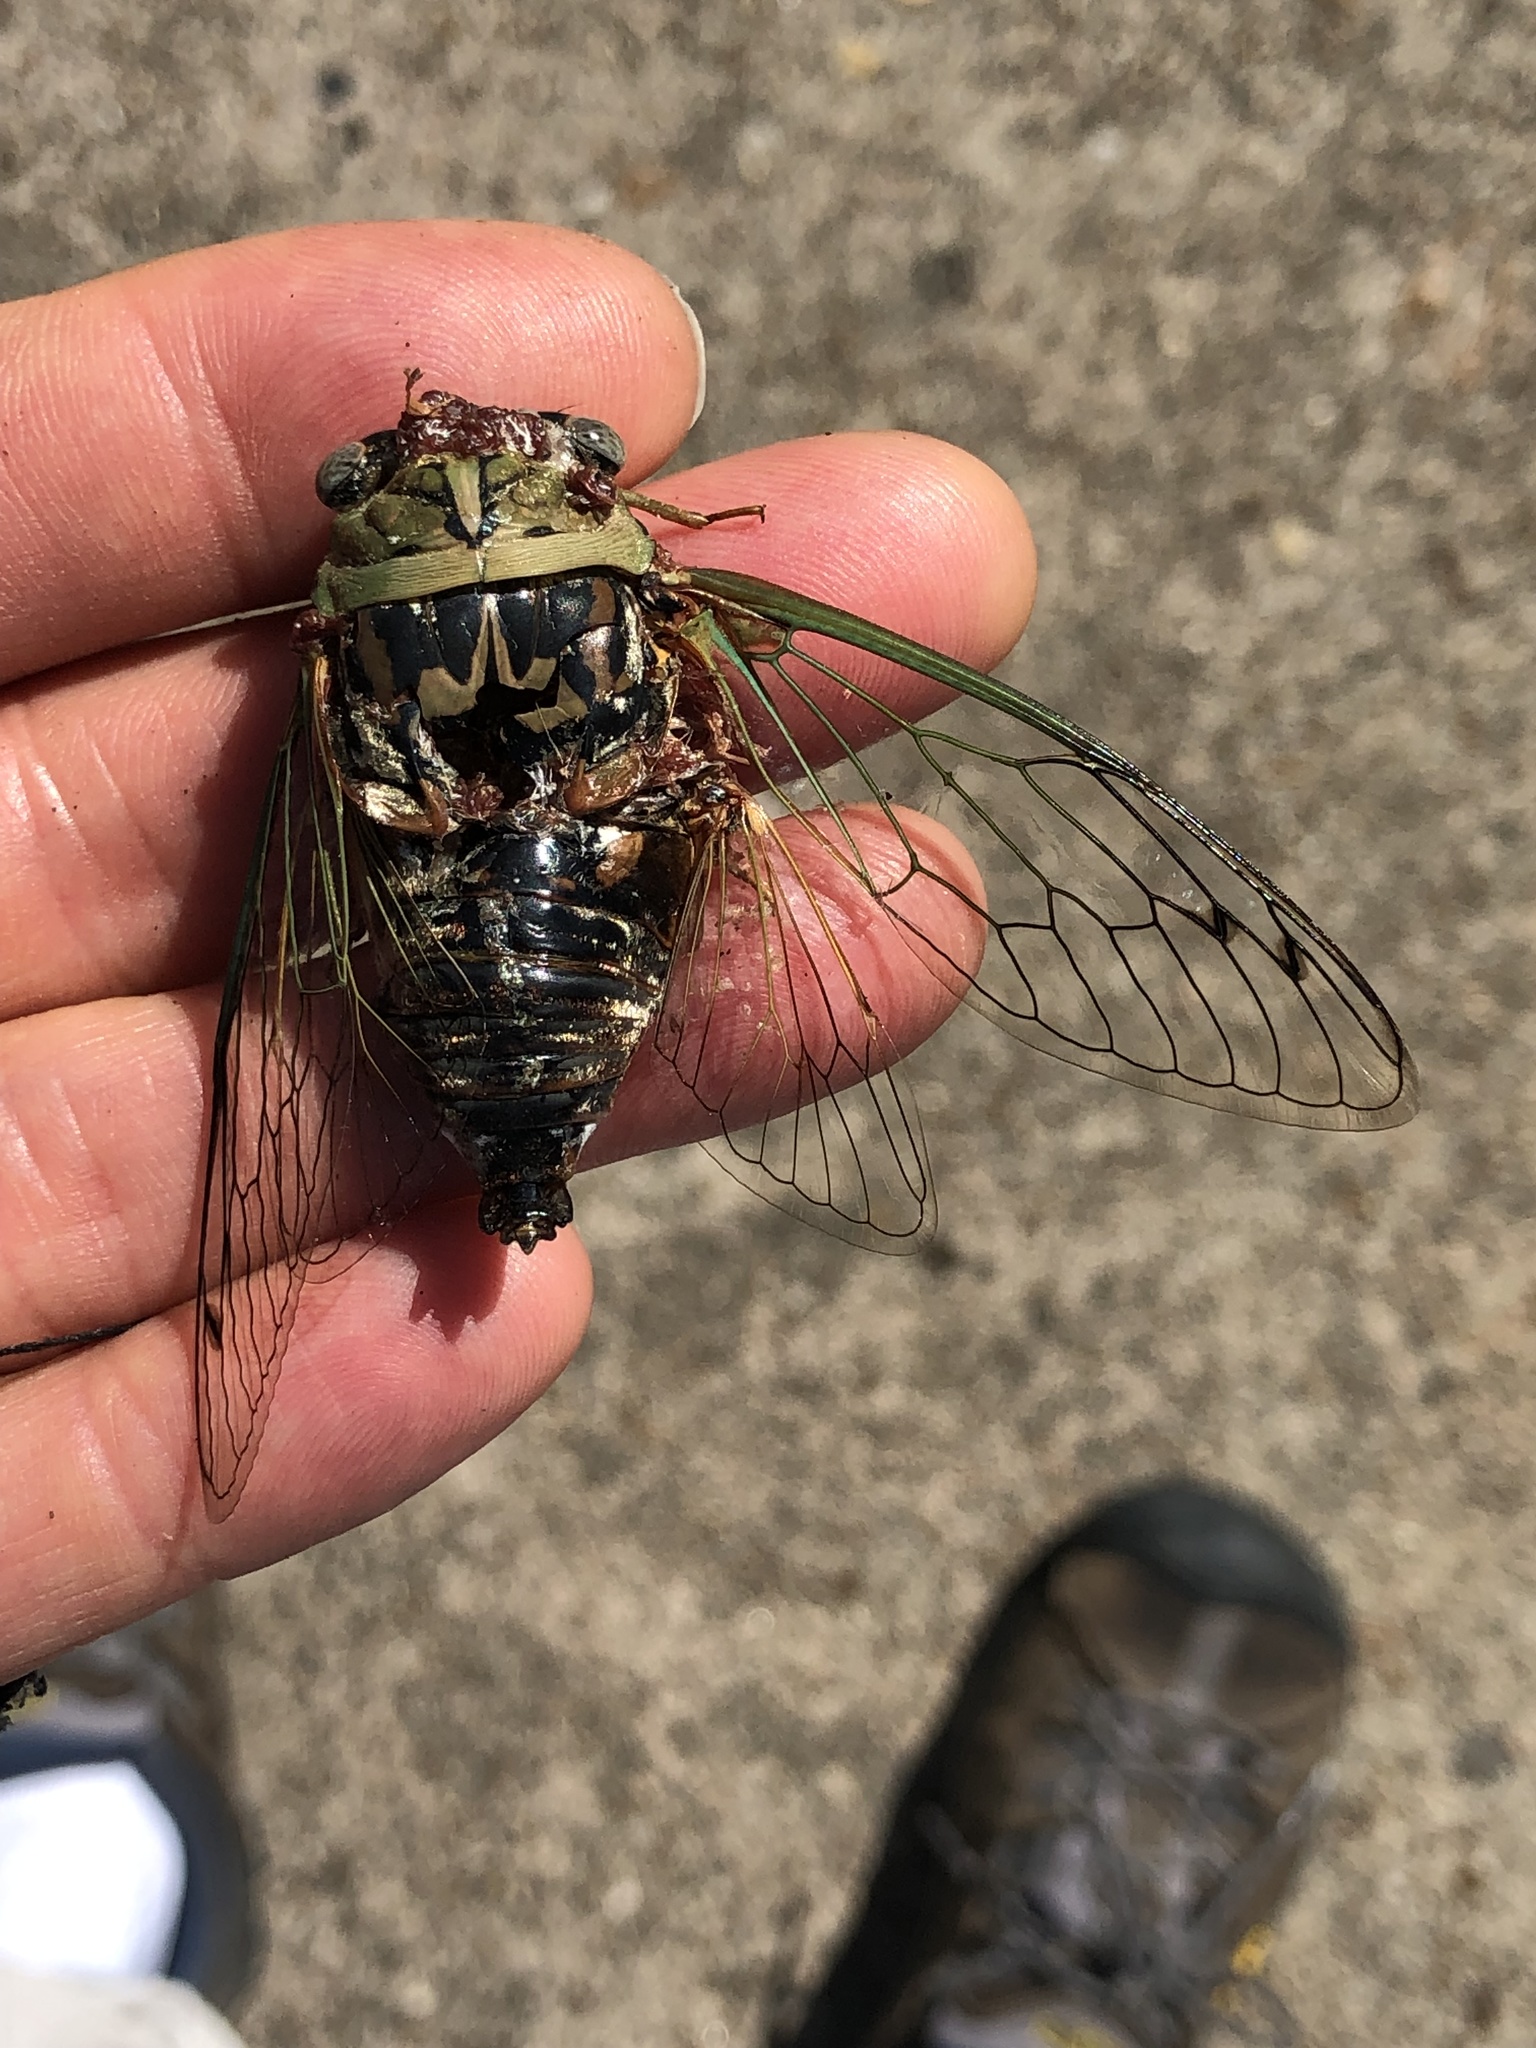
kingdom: Animalia
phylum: Arthropoda
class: Insecta
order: Hemiptera
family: Cicadidae
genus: Megatibicen
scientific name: Megatibicen resh
